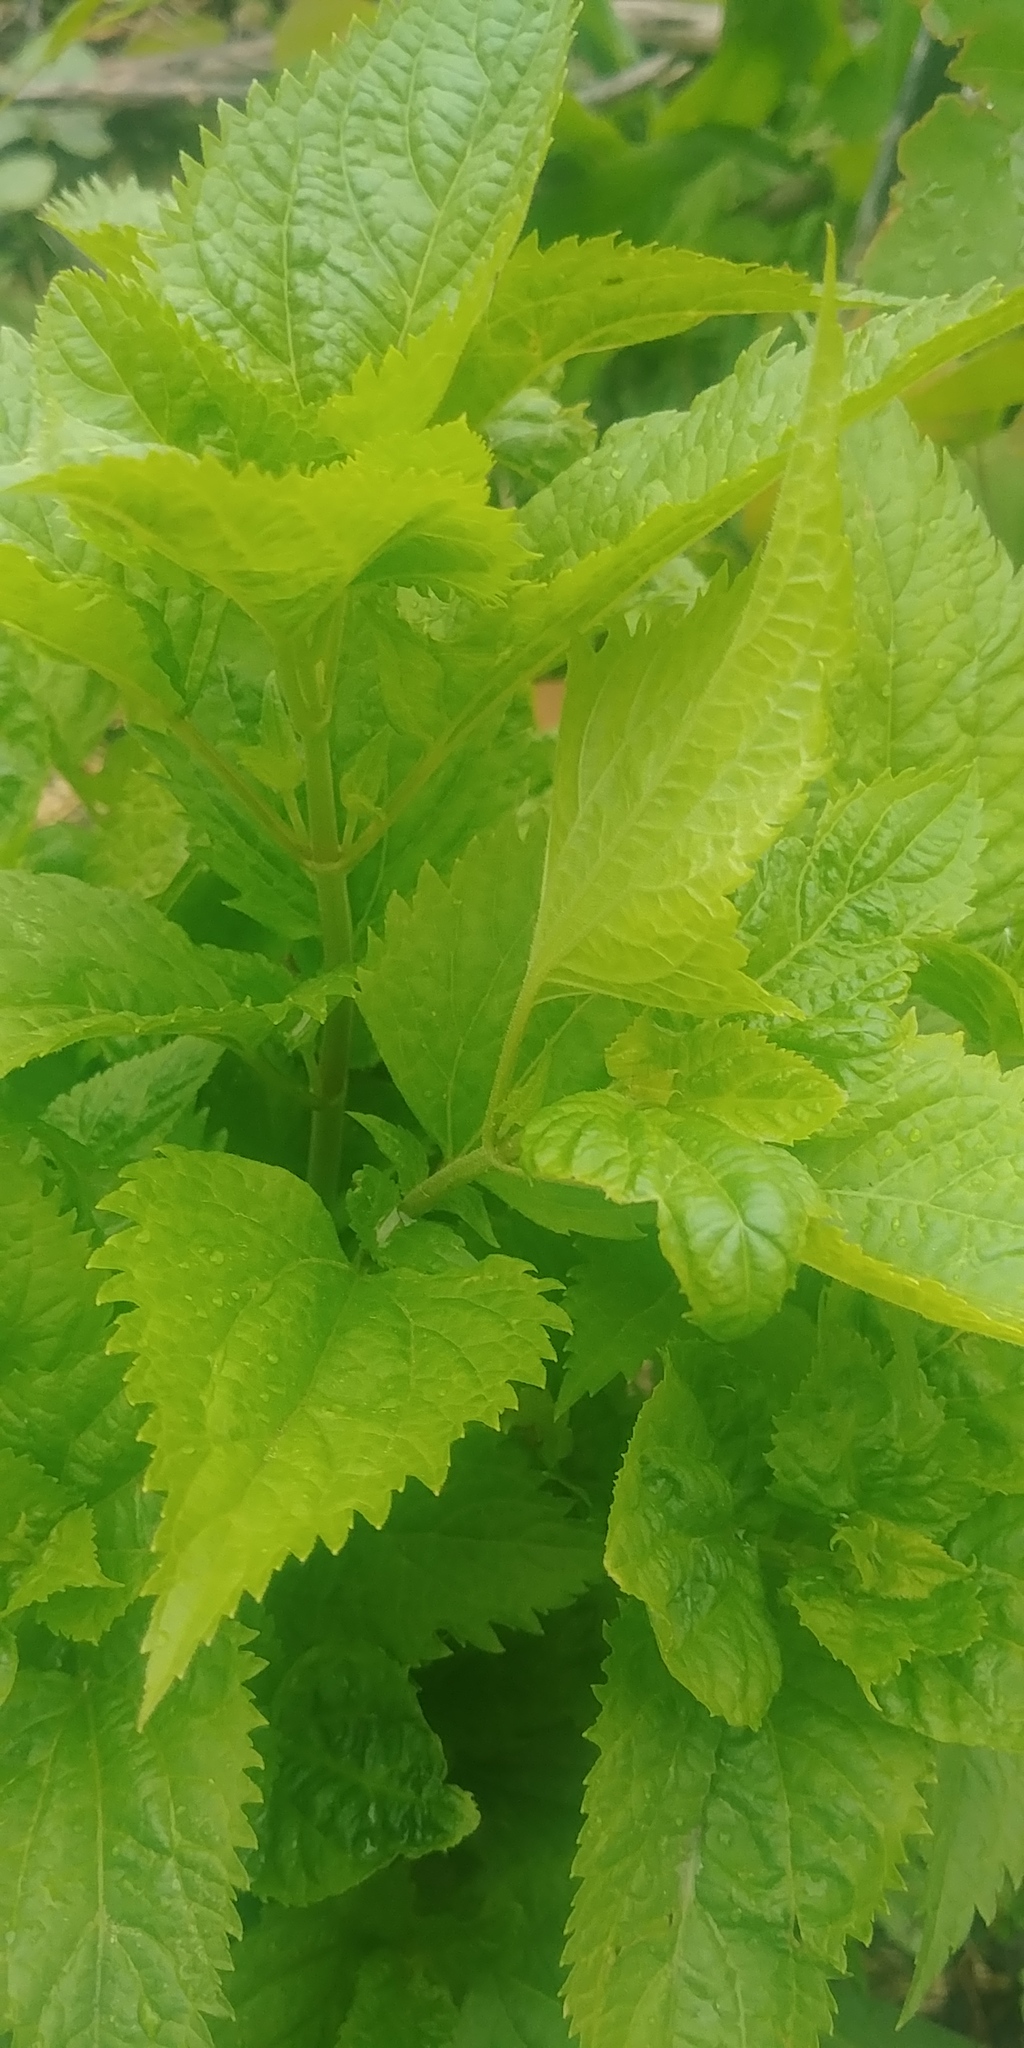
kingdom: Plantae
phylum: Tracheophyta
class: Magnoliopsida
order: Asterales
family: Asteraceae
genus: Ageratina
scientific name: Ageratina altissima
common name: White snakeroot
